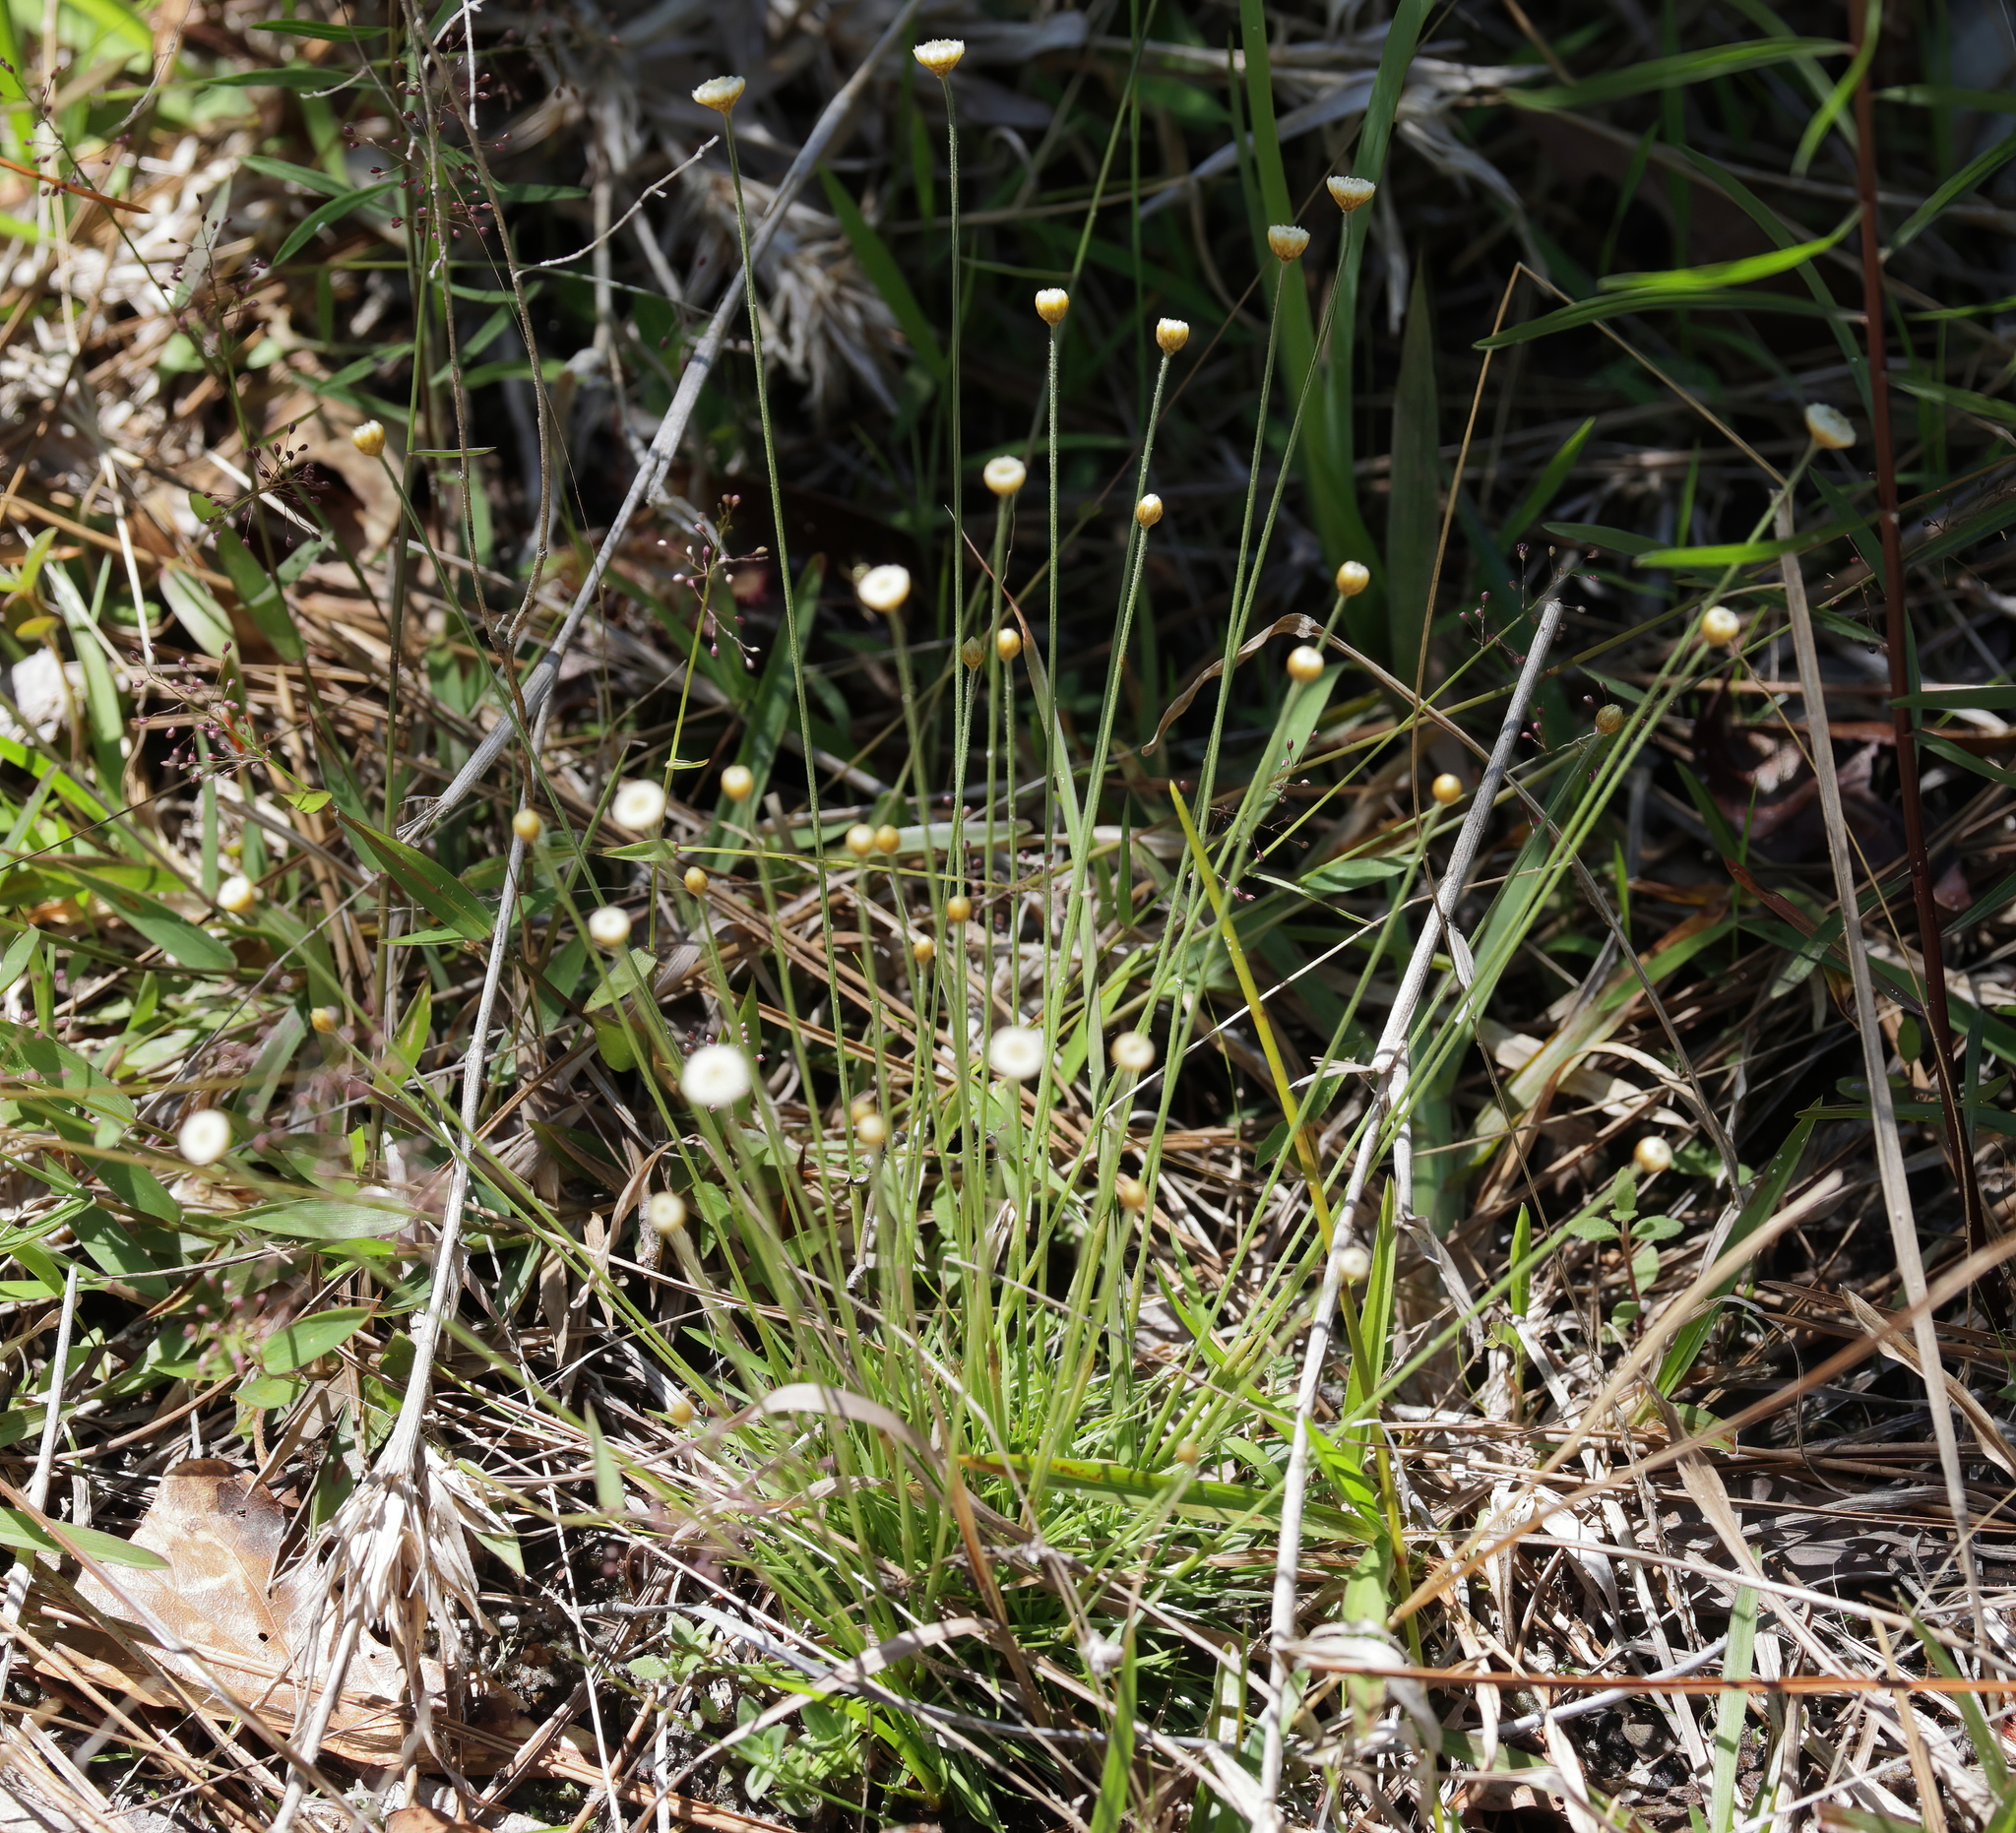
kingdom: Plantae
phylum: Tracheophyta
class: Liliopsida
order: Poales
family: Eriocaulaceae
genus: Syngonanthus
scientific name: Syngonanthus flavidulus
